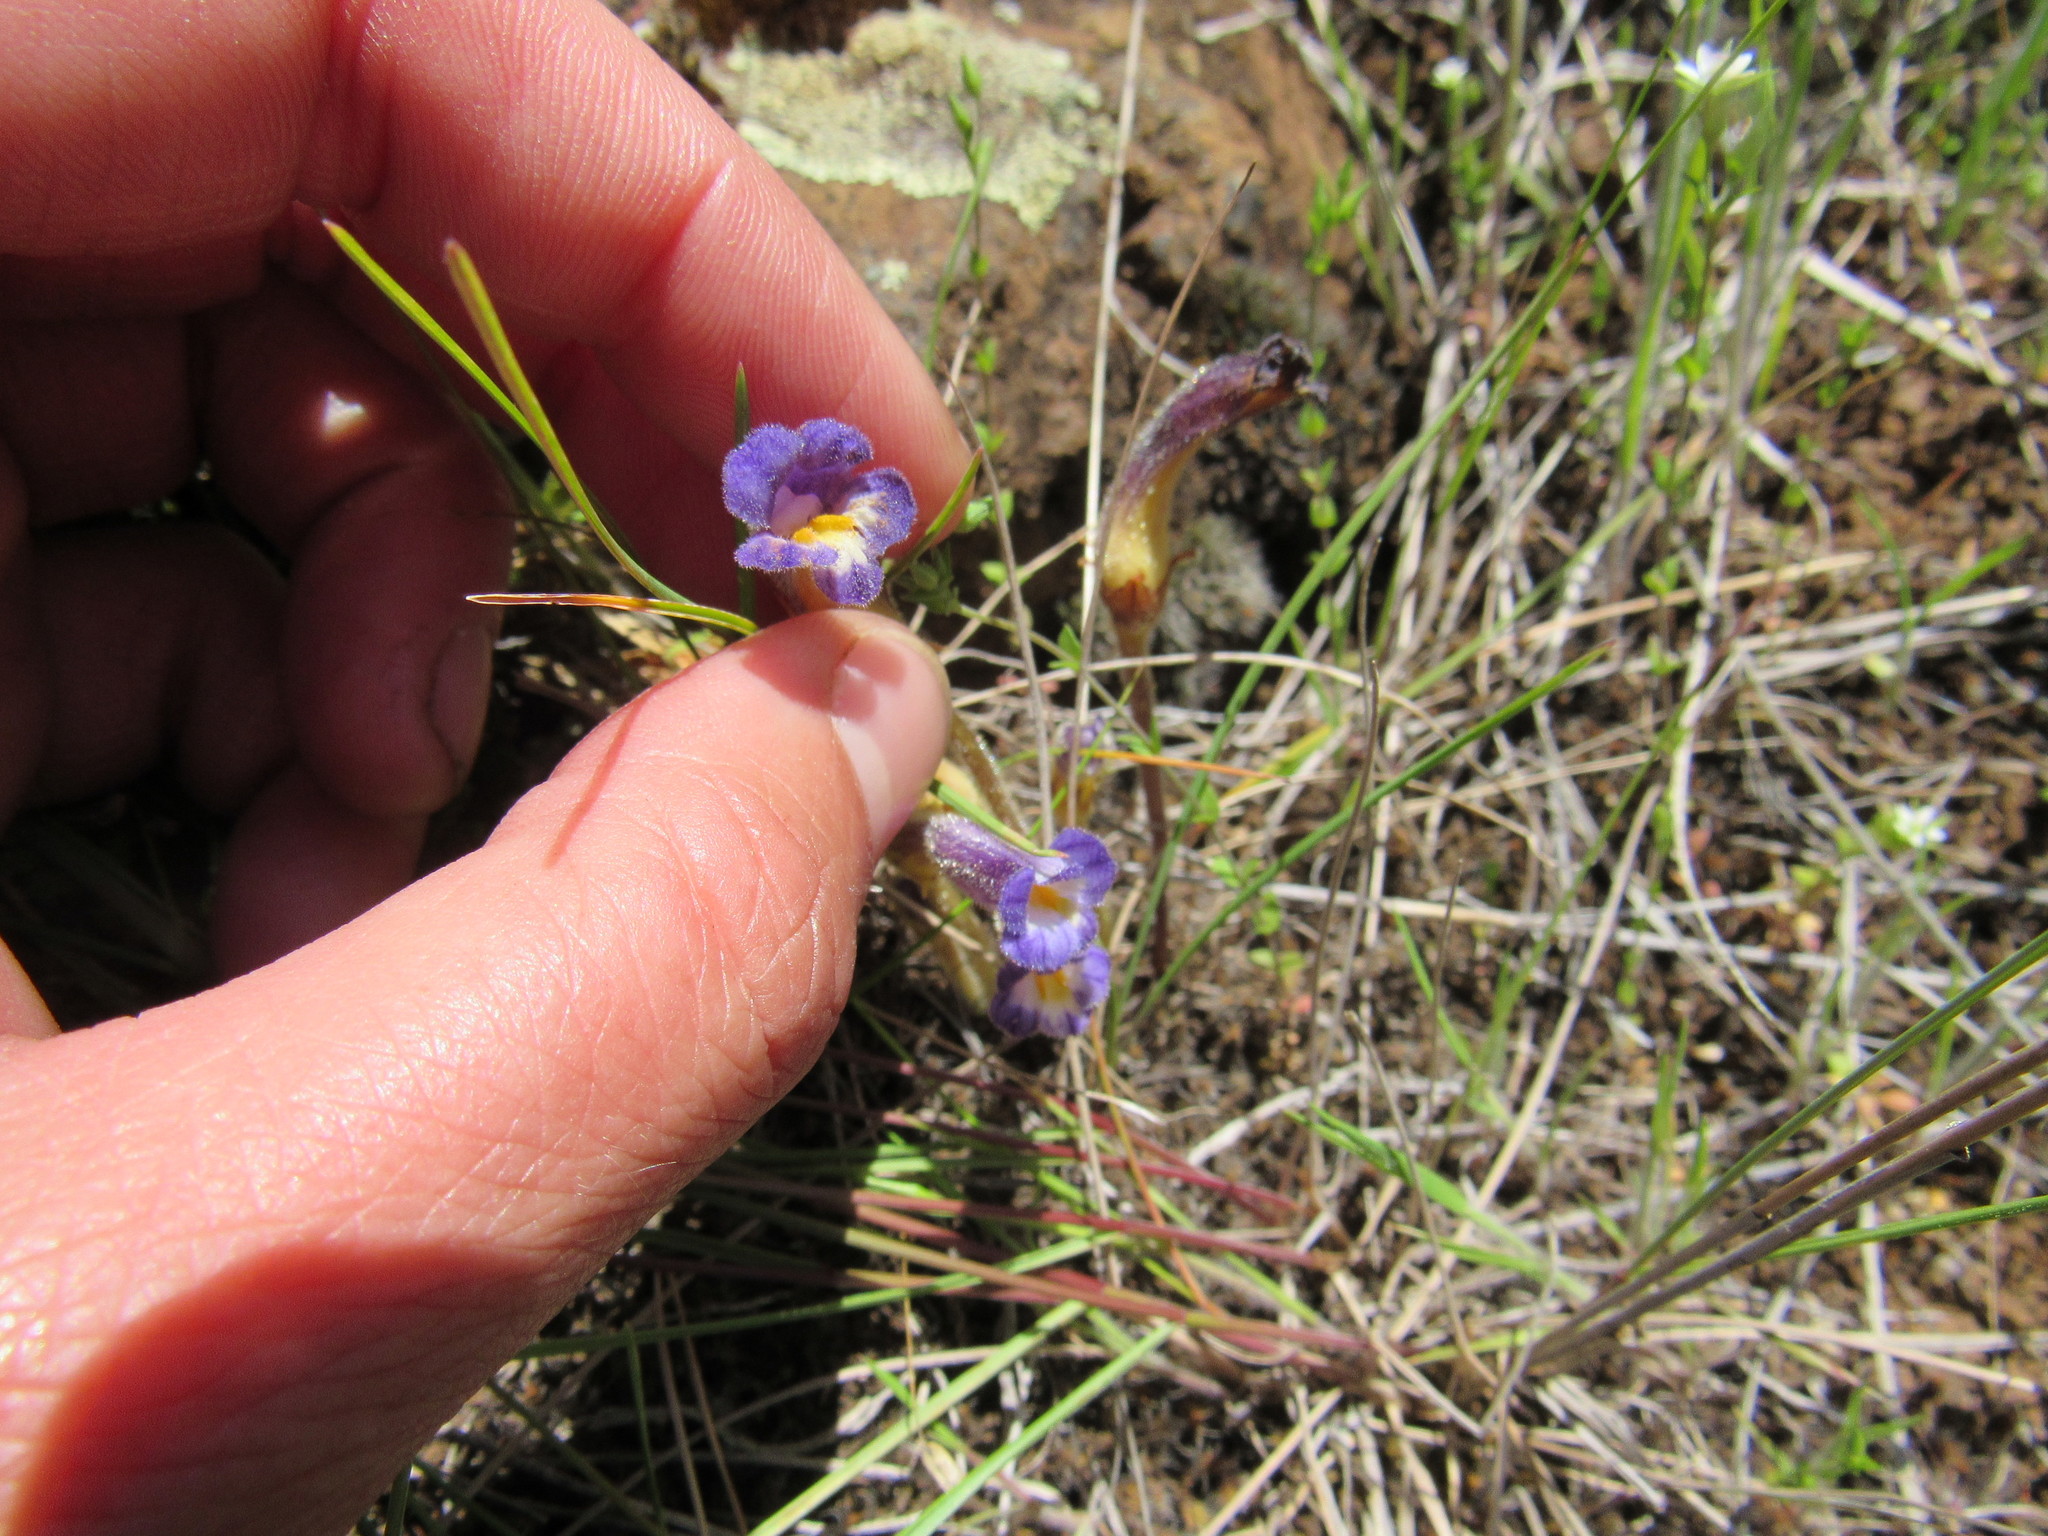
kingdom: Plantae
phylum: Tracheophyta
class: Magnoliopsida
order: Lamiales
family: Orobanchaceae
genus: Aphyllon
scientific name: Aphyllon uniflorum
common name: One-flowered broomrape
